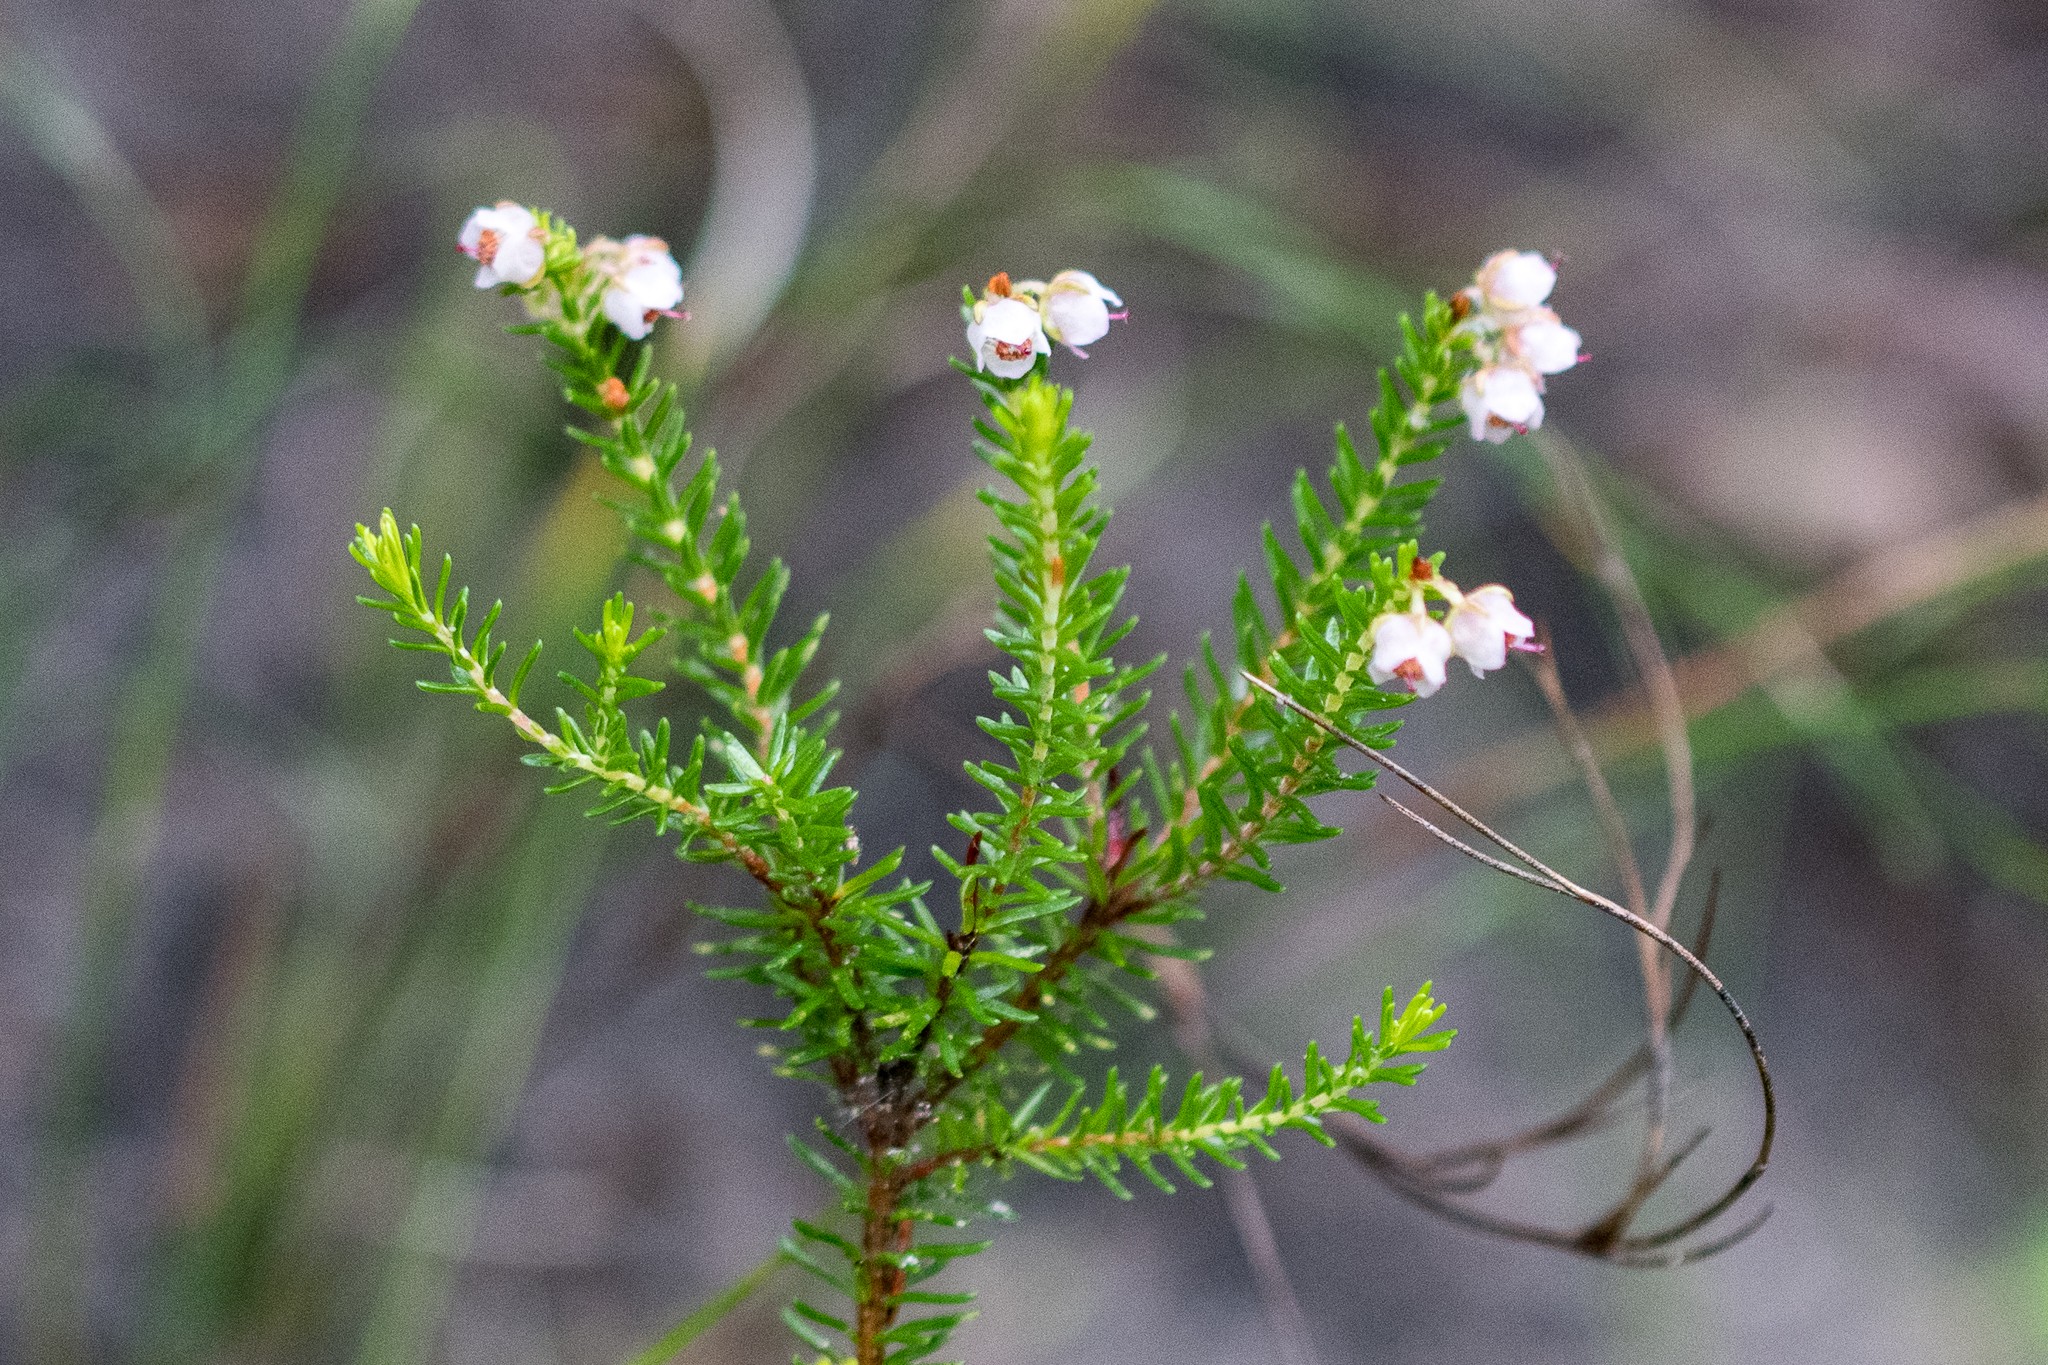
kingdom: Plantae
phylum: Tracheophyta
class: Magnoliopsida
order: Ericales
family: Ericaceae
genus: Erica
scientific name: Erica curvirostris
